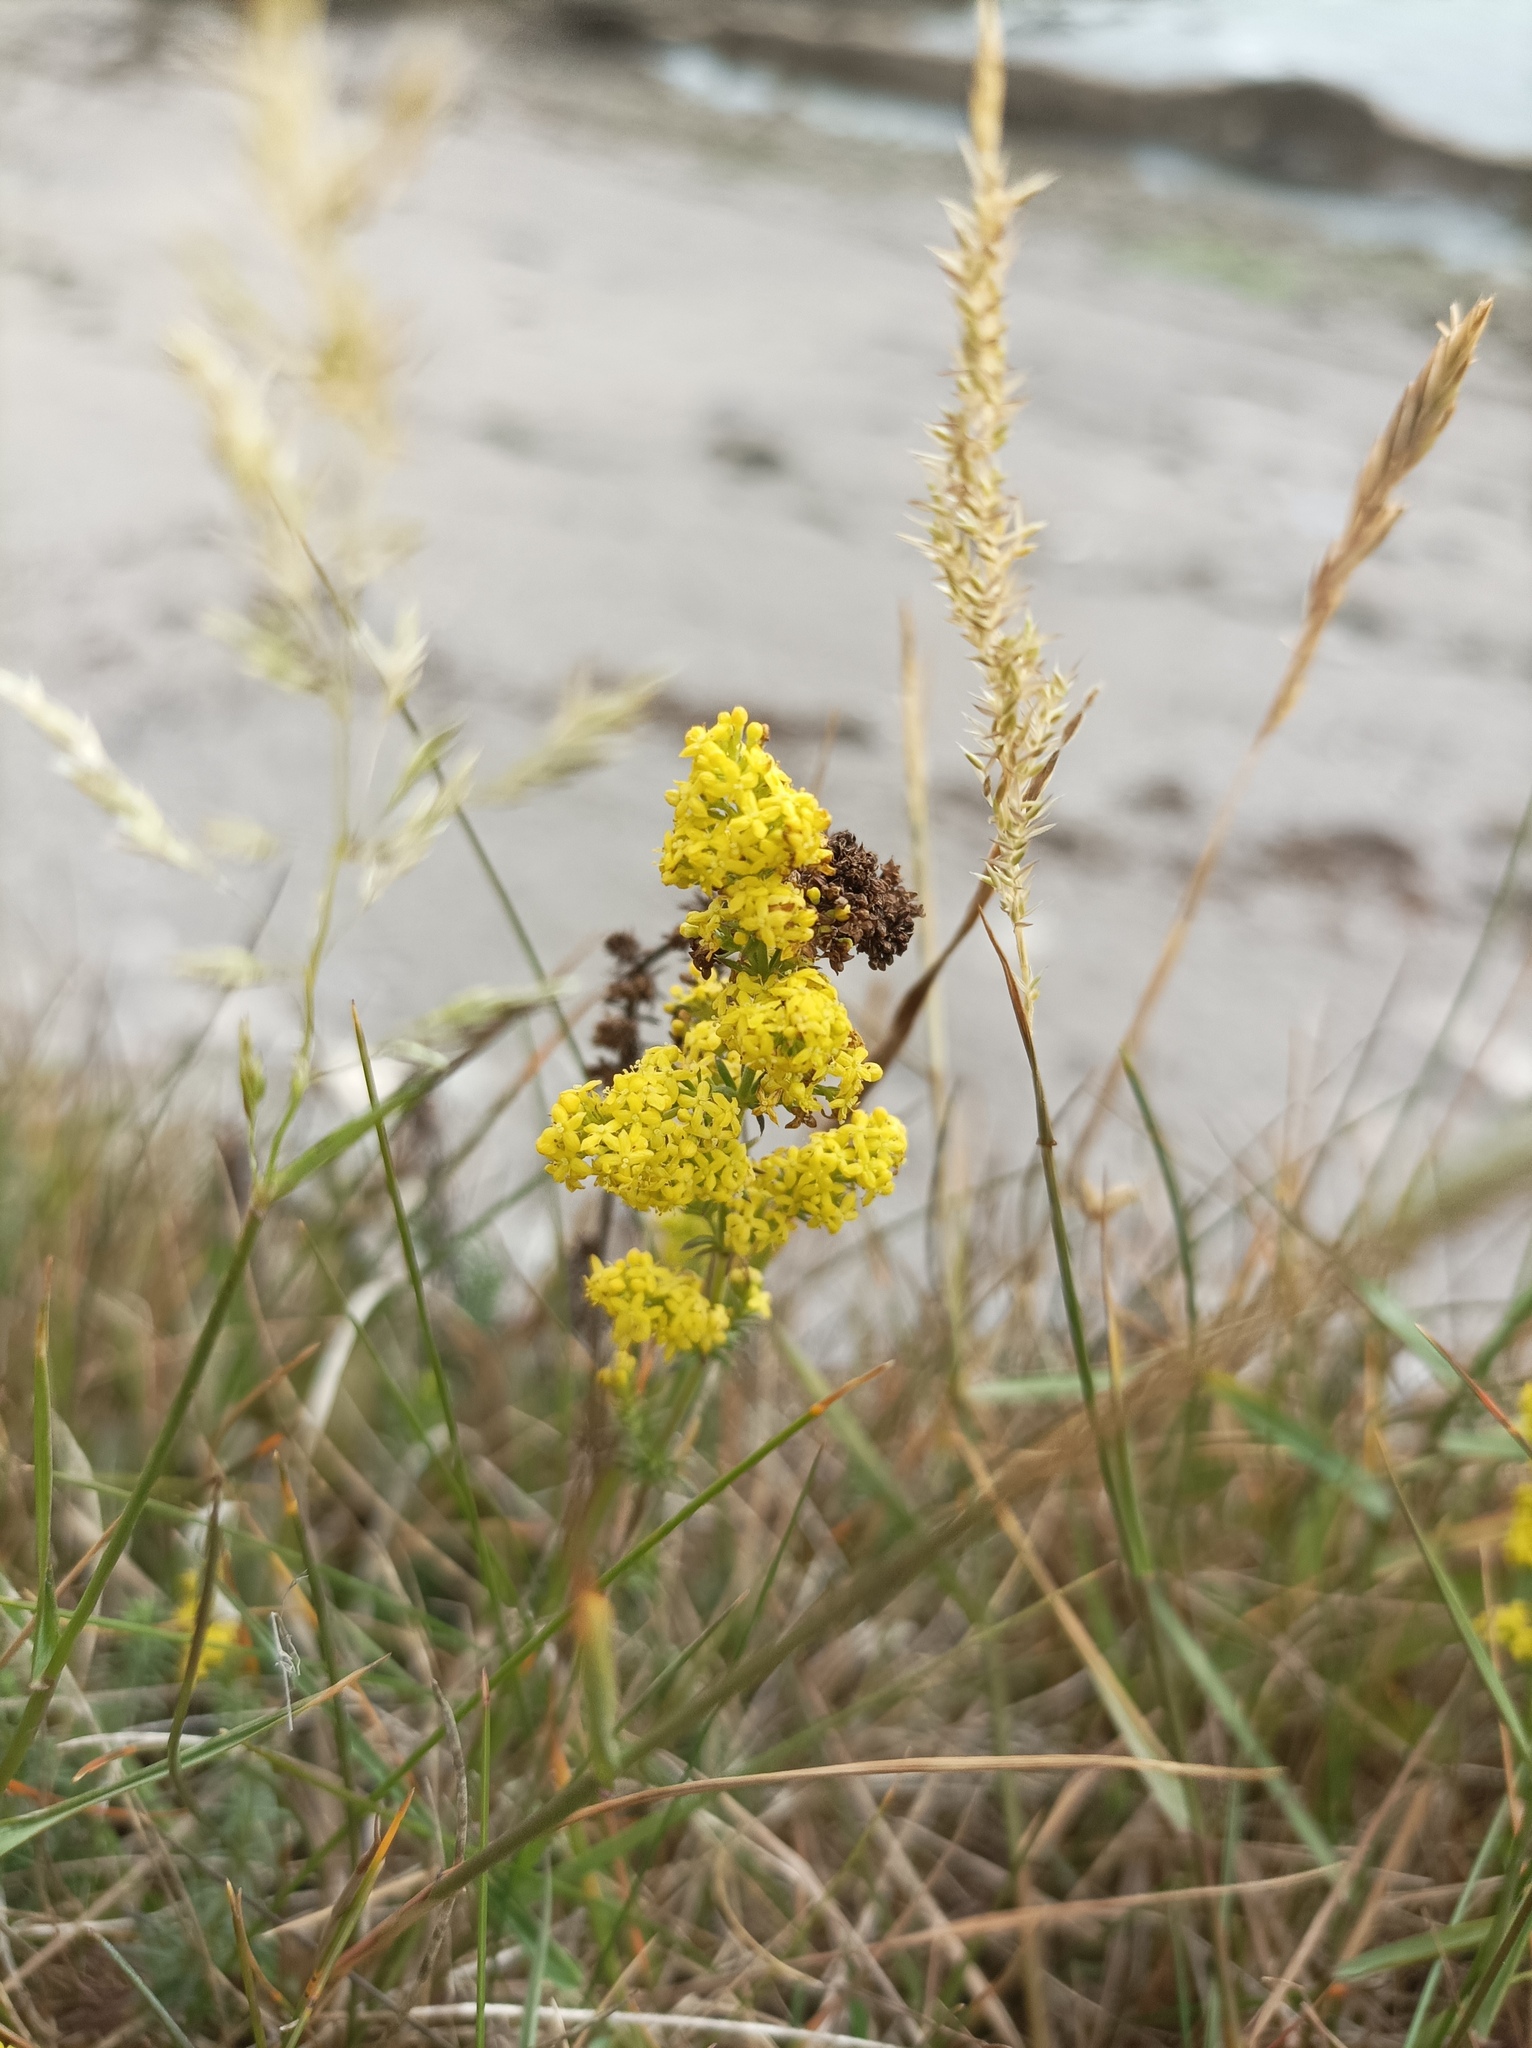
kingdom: Plantae
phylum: Tracheophyta
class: Magnoliopsida
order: Gentianales
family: Rubiaceae
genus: Galium
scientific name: Galium verum
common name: Lady's bedstraw
